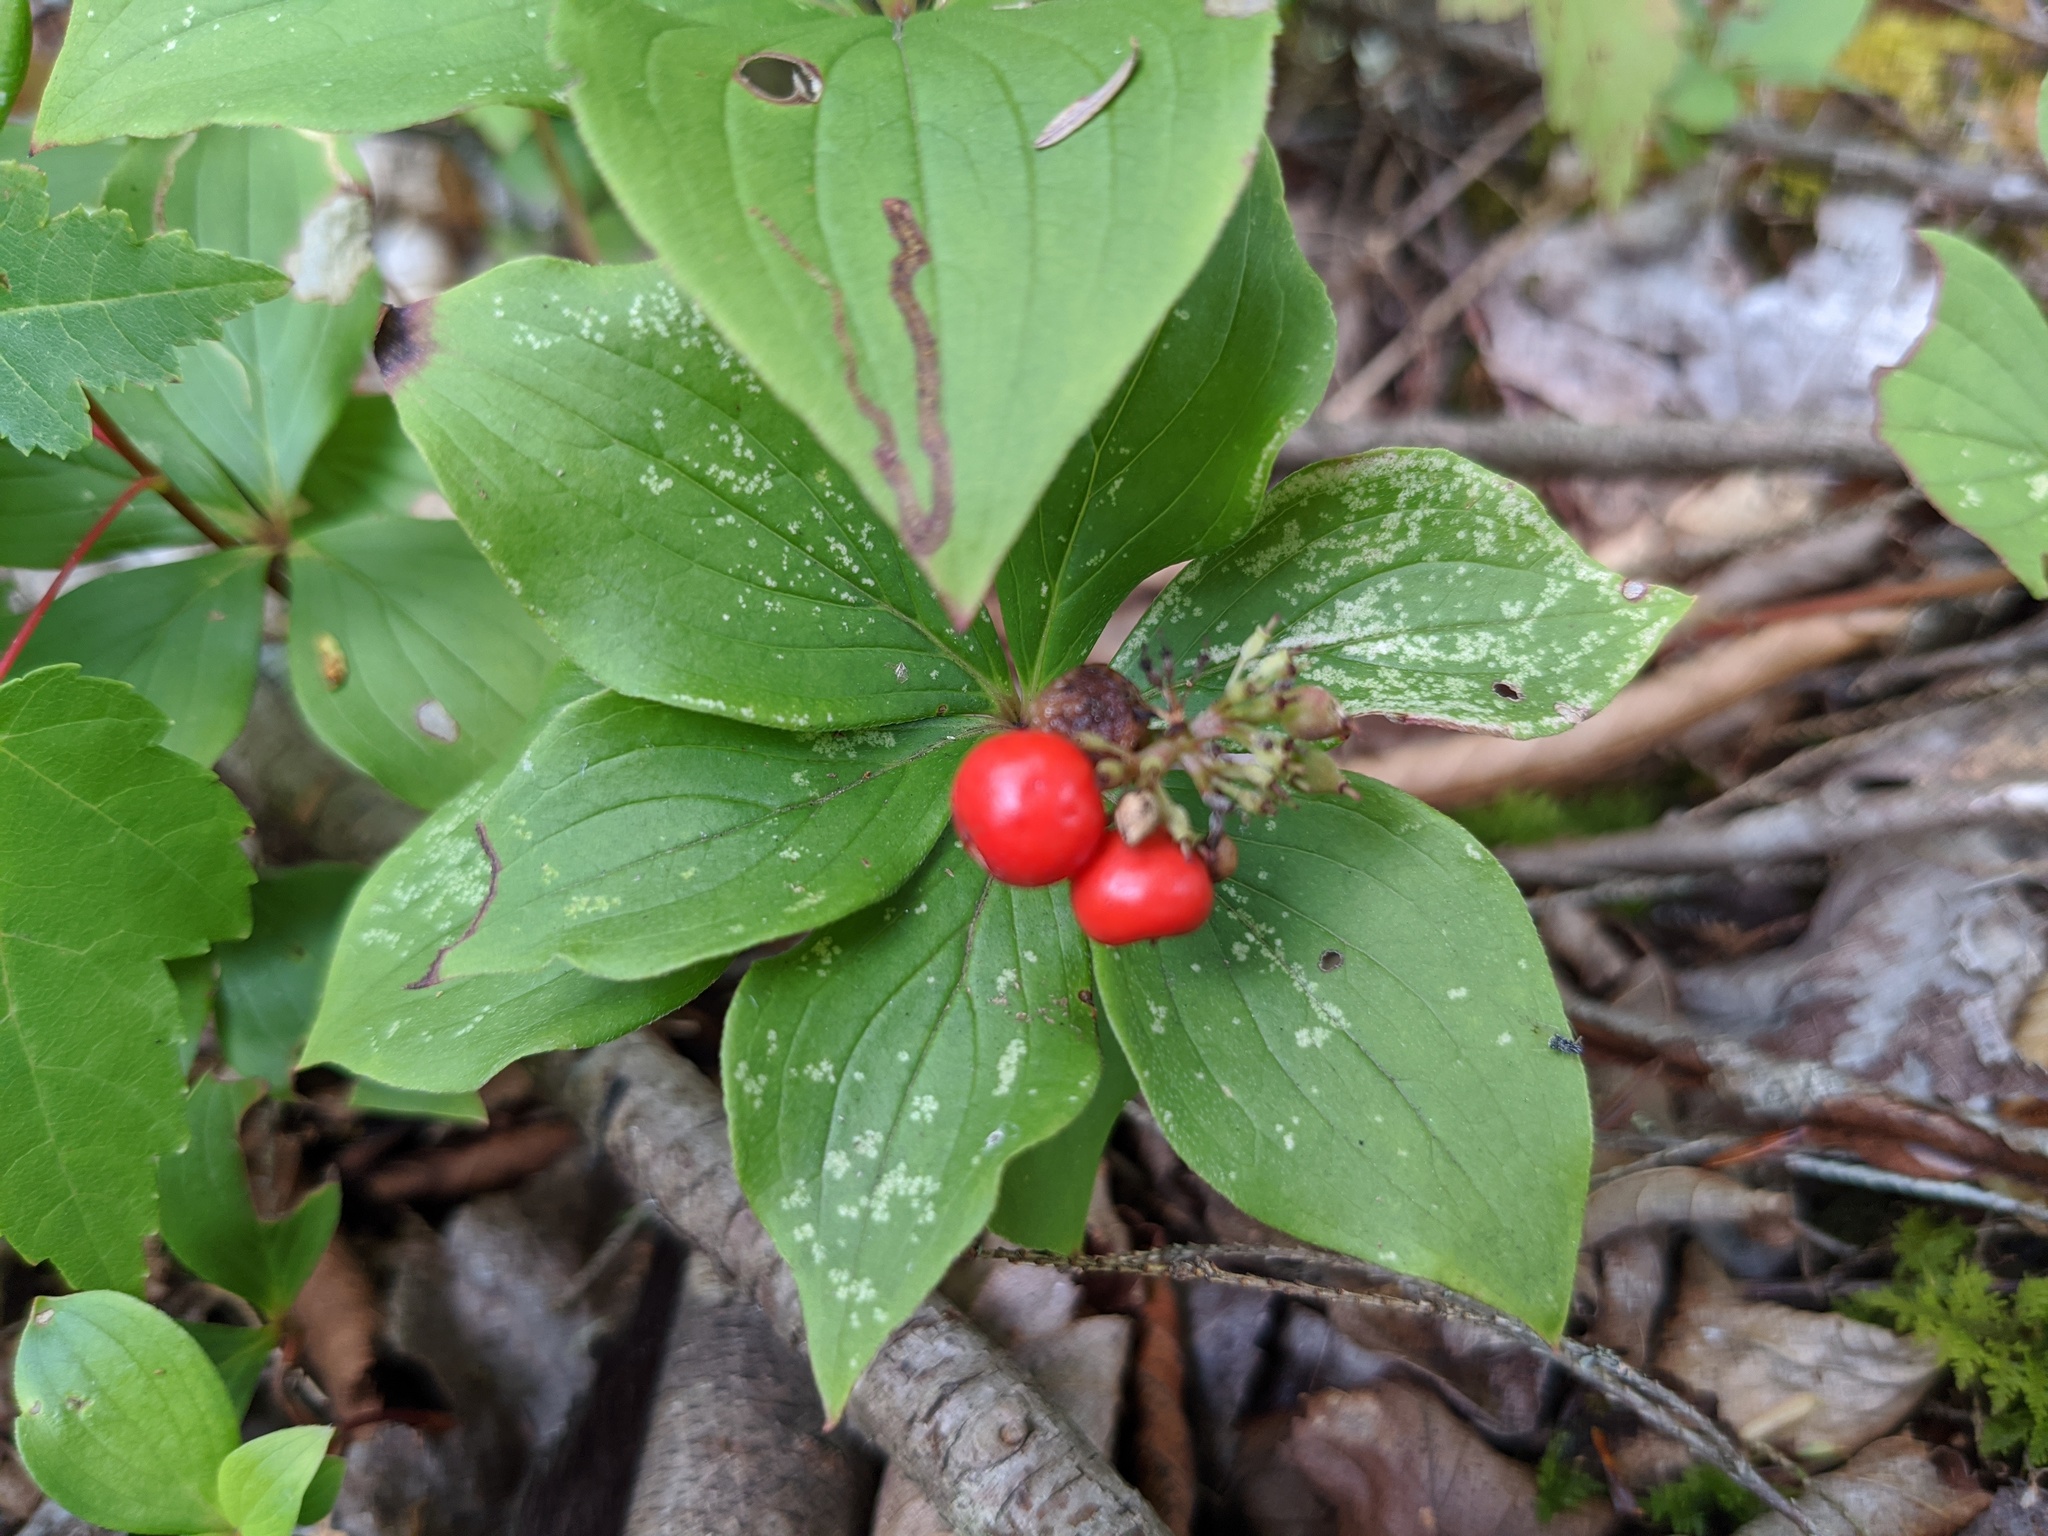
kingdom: Plantae
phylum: Tracheophyta
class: Magnoliopsida
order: Cornales
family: Cornaceae
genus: Cornus
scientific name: Cornus canadensis
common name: Creeping dogwood
